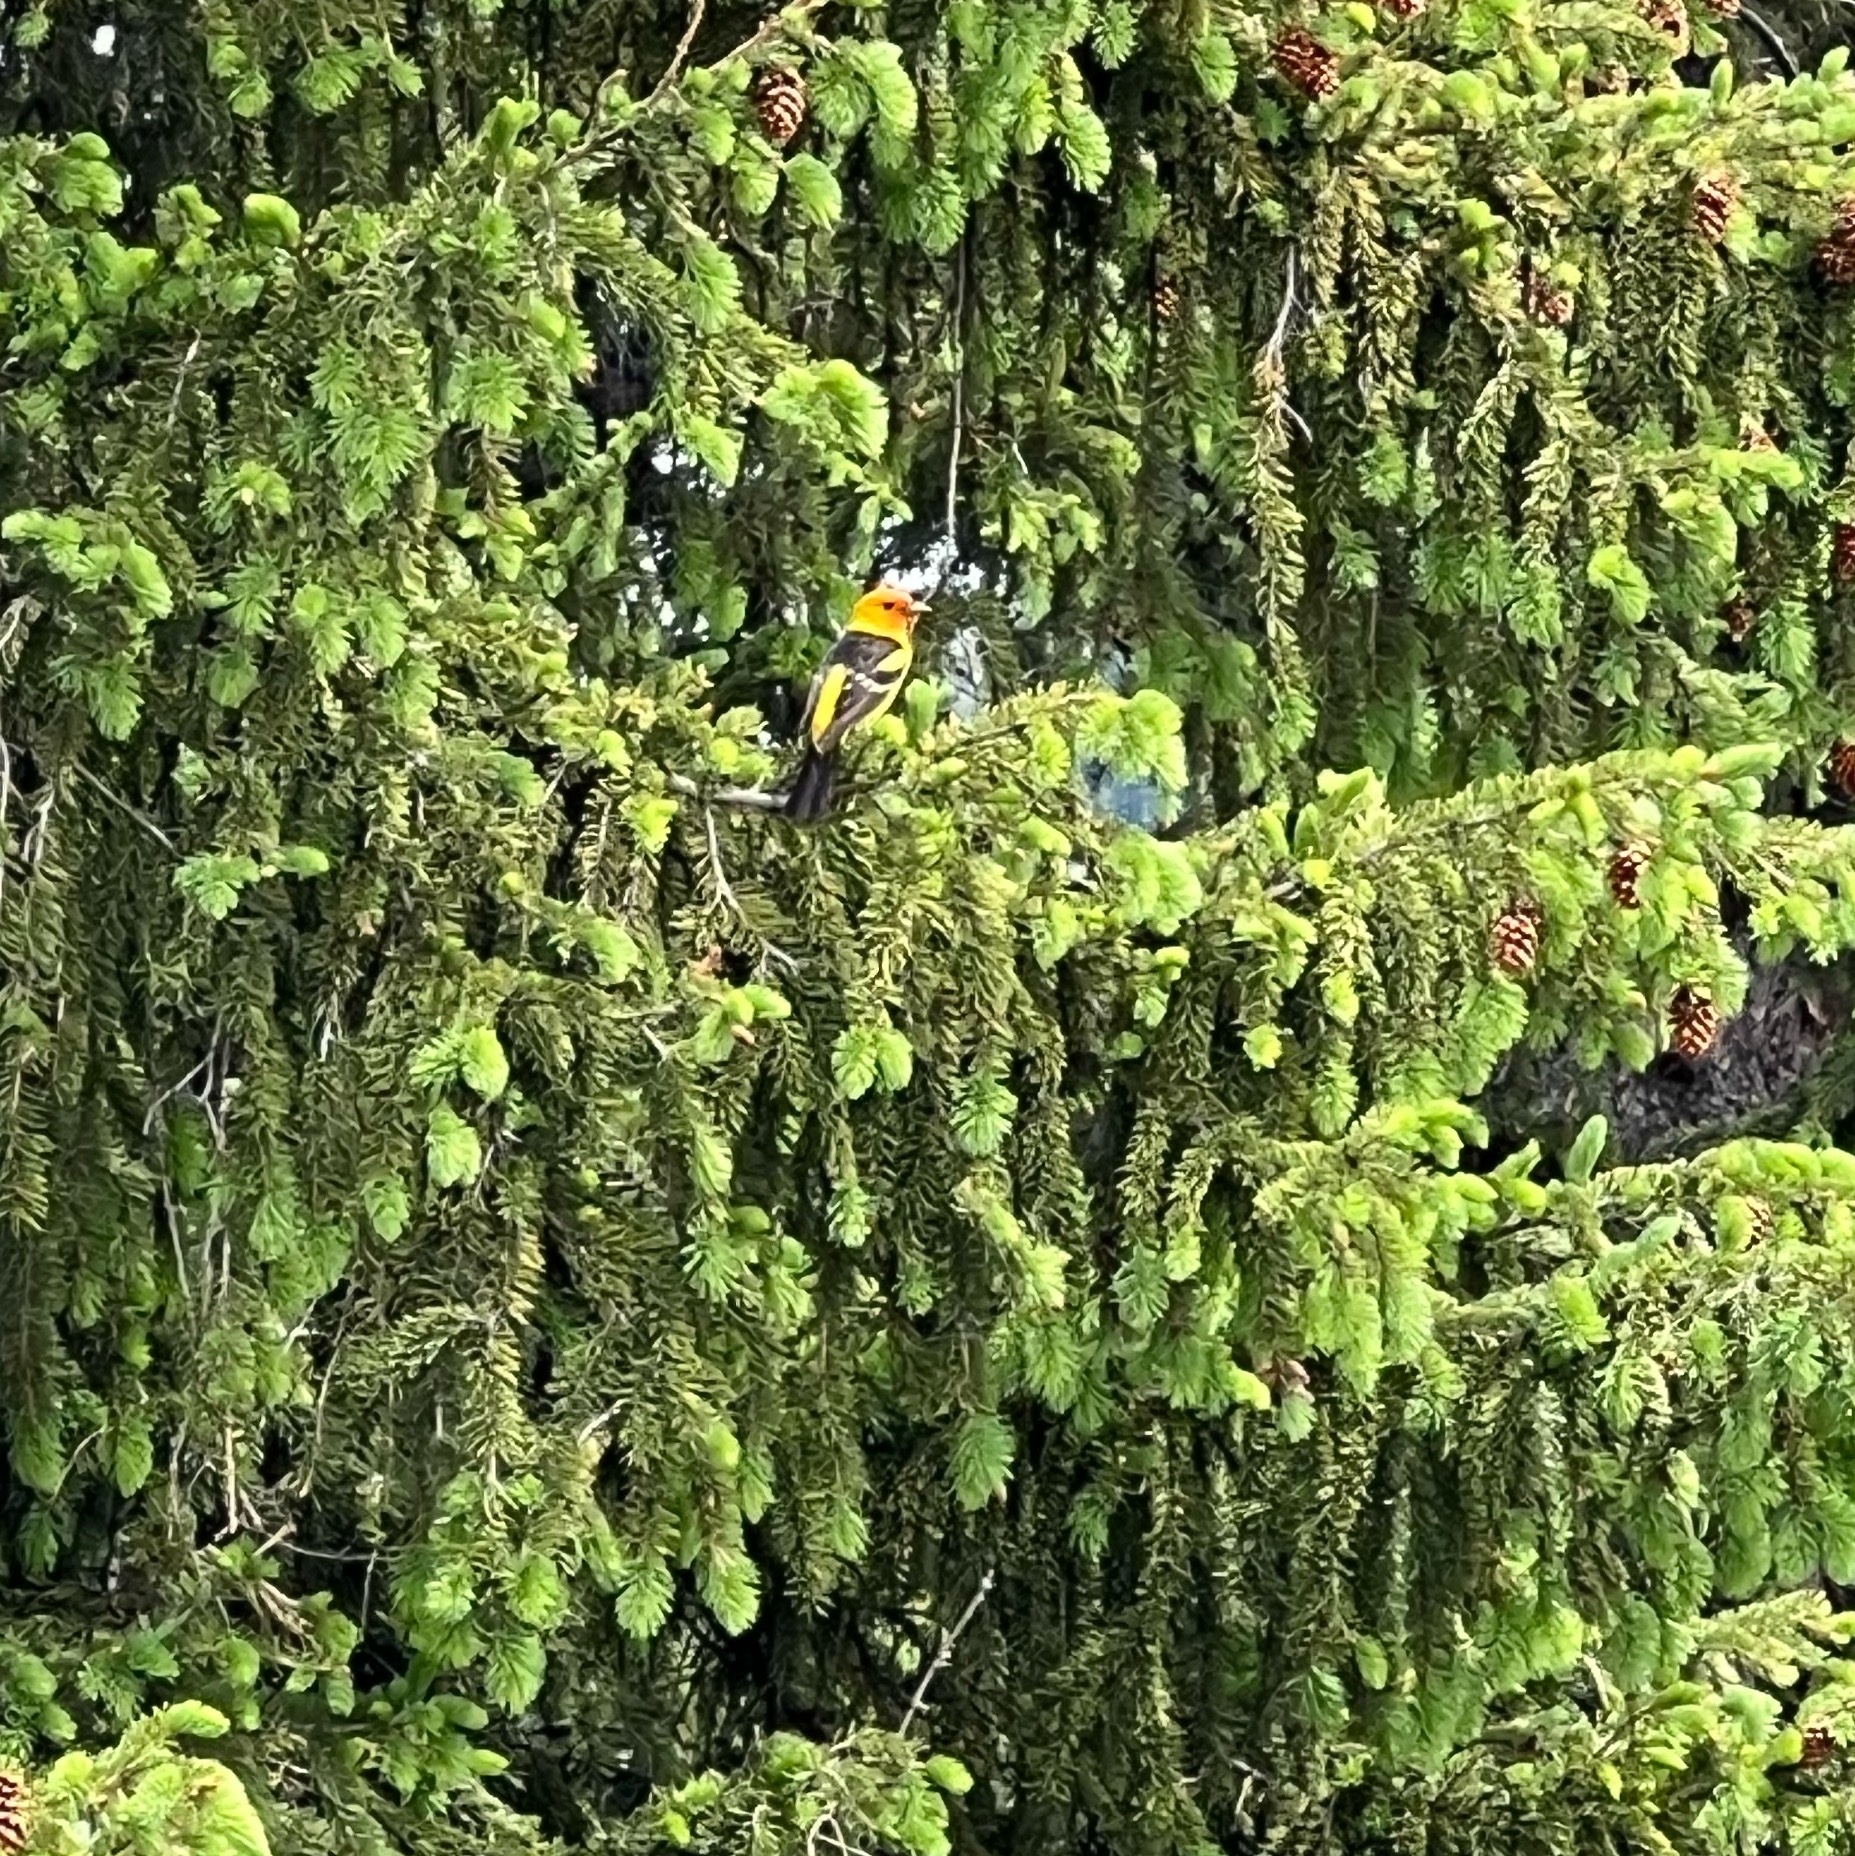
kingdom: Animalia
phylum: Chordata
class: Aves
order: Passeriformes
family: Cardinalidae
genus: Piranga
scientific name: Piranga ludoviciana
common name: Western tanager
